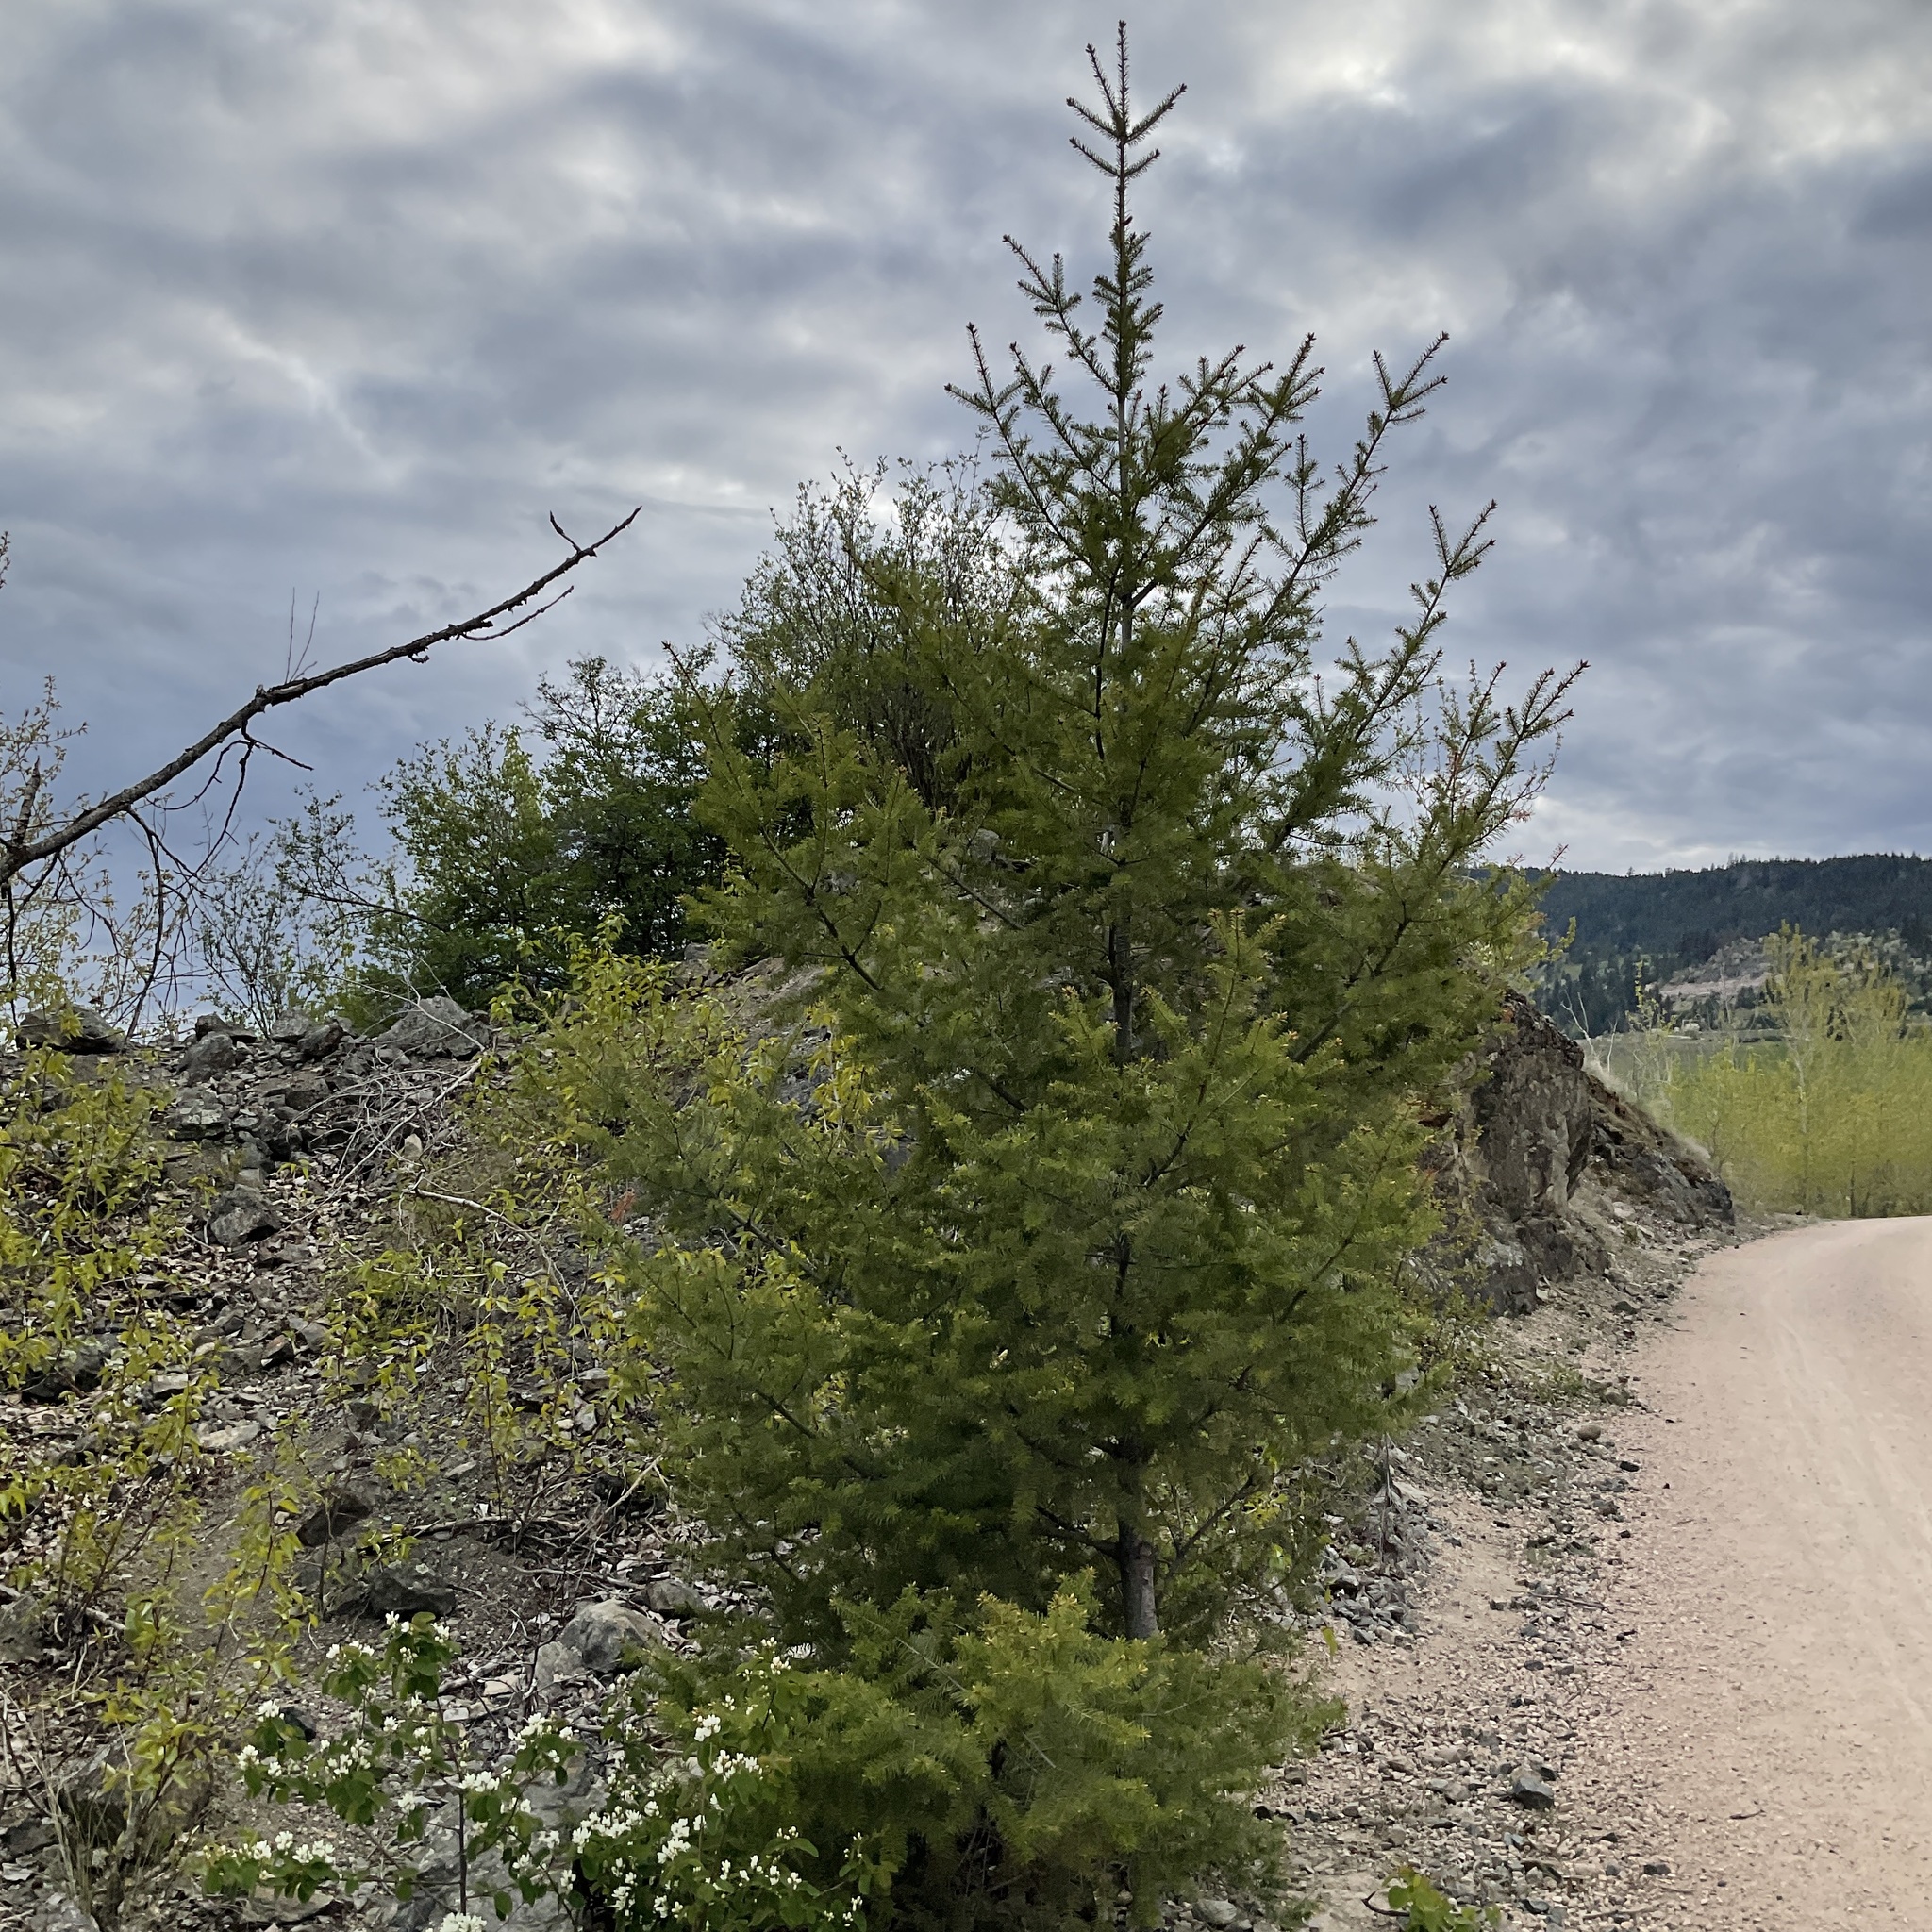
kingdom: Plantae
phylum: Tracheophyta
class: Pinopsida
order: Pinales
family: Pinaceae
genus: Pseudotsuga
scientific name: Pseudotsuga menziesii
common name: Douglas fir
